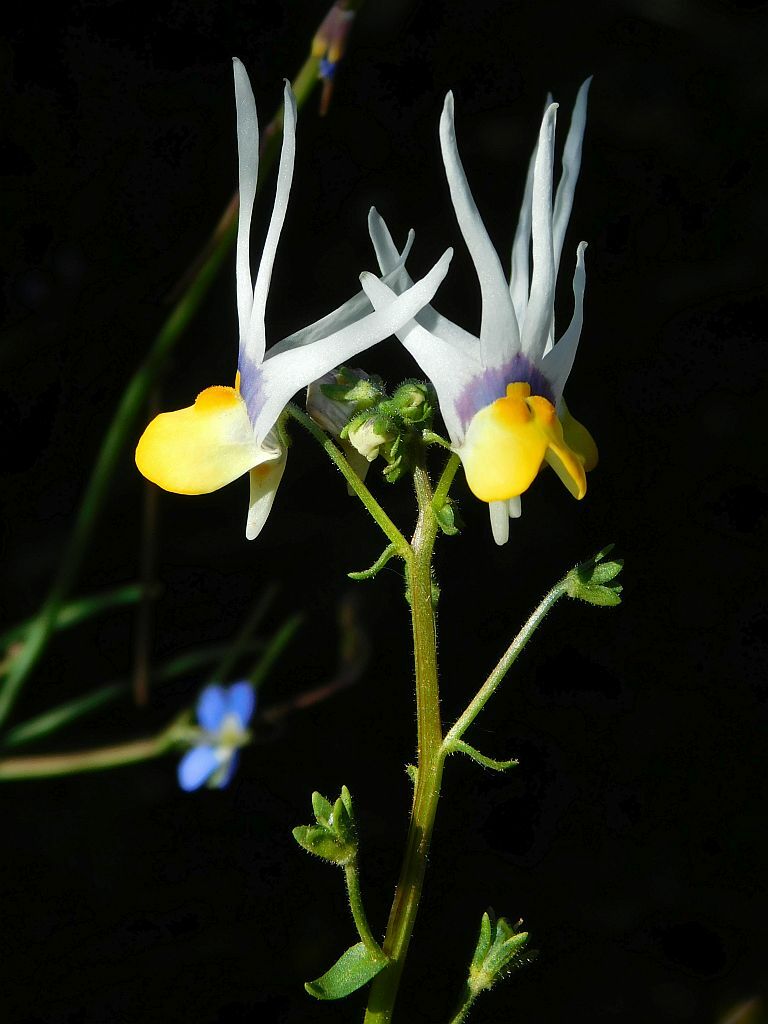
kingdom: Plantae
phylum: Tracheophyta
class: Magnoliopsida
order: Lamiales
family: Scrophulariaceae
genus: Nemesia
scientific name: Nemesia cheiranthus
